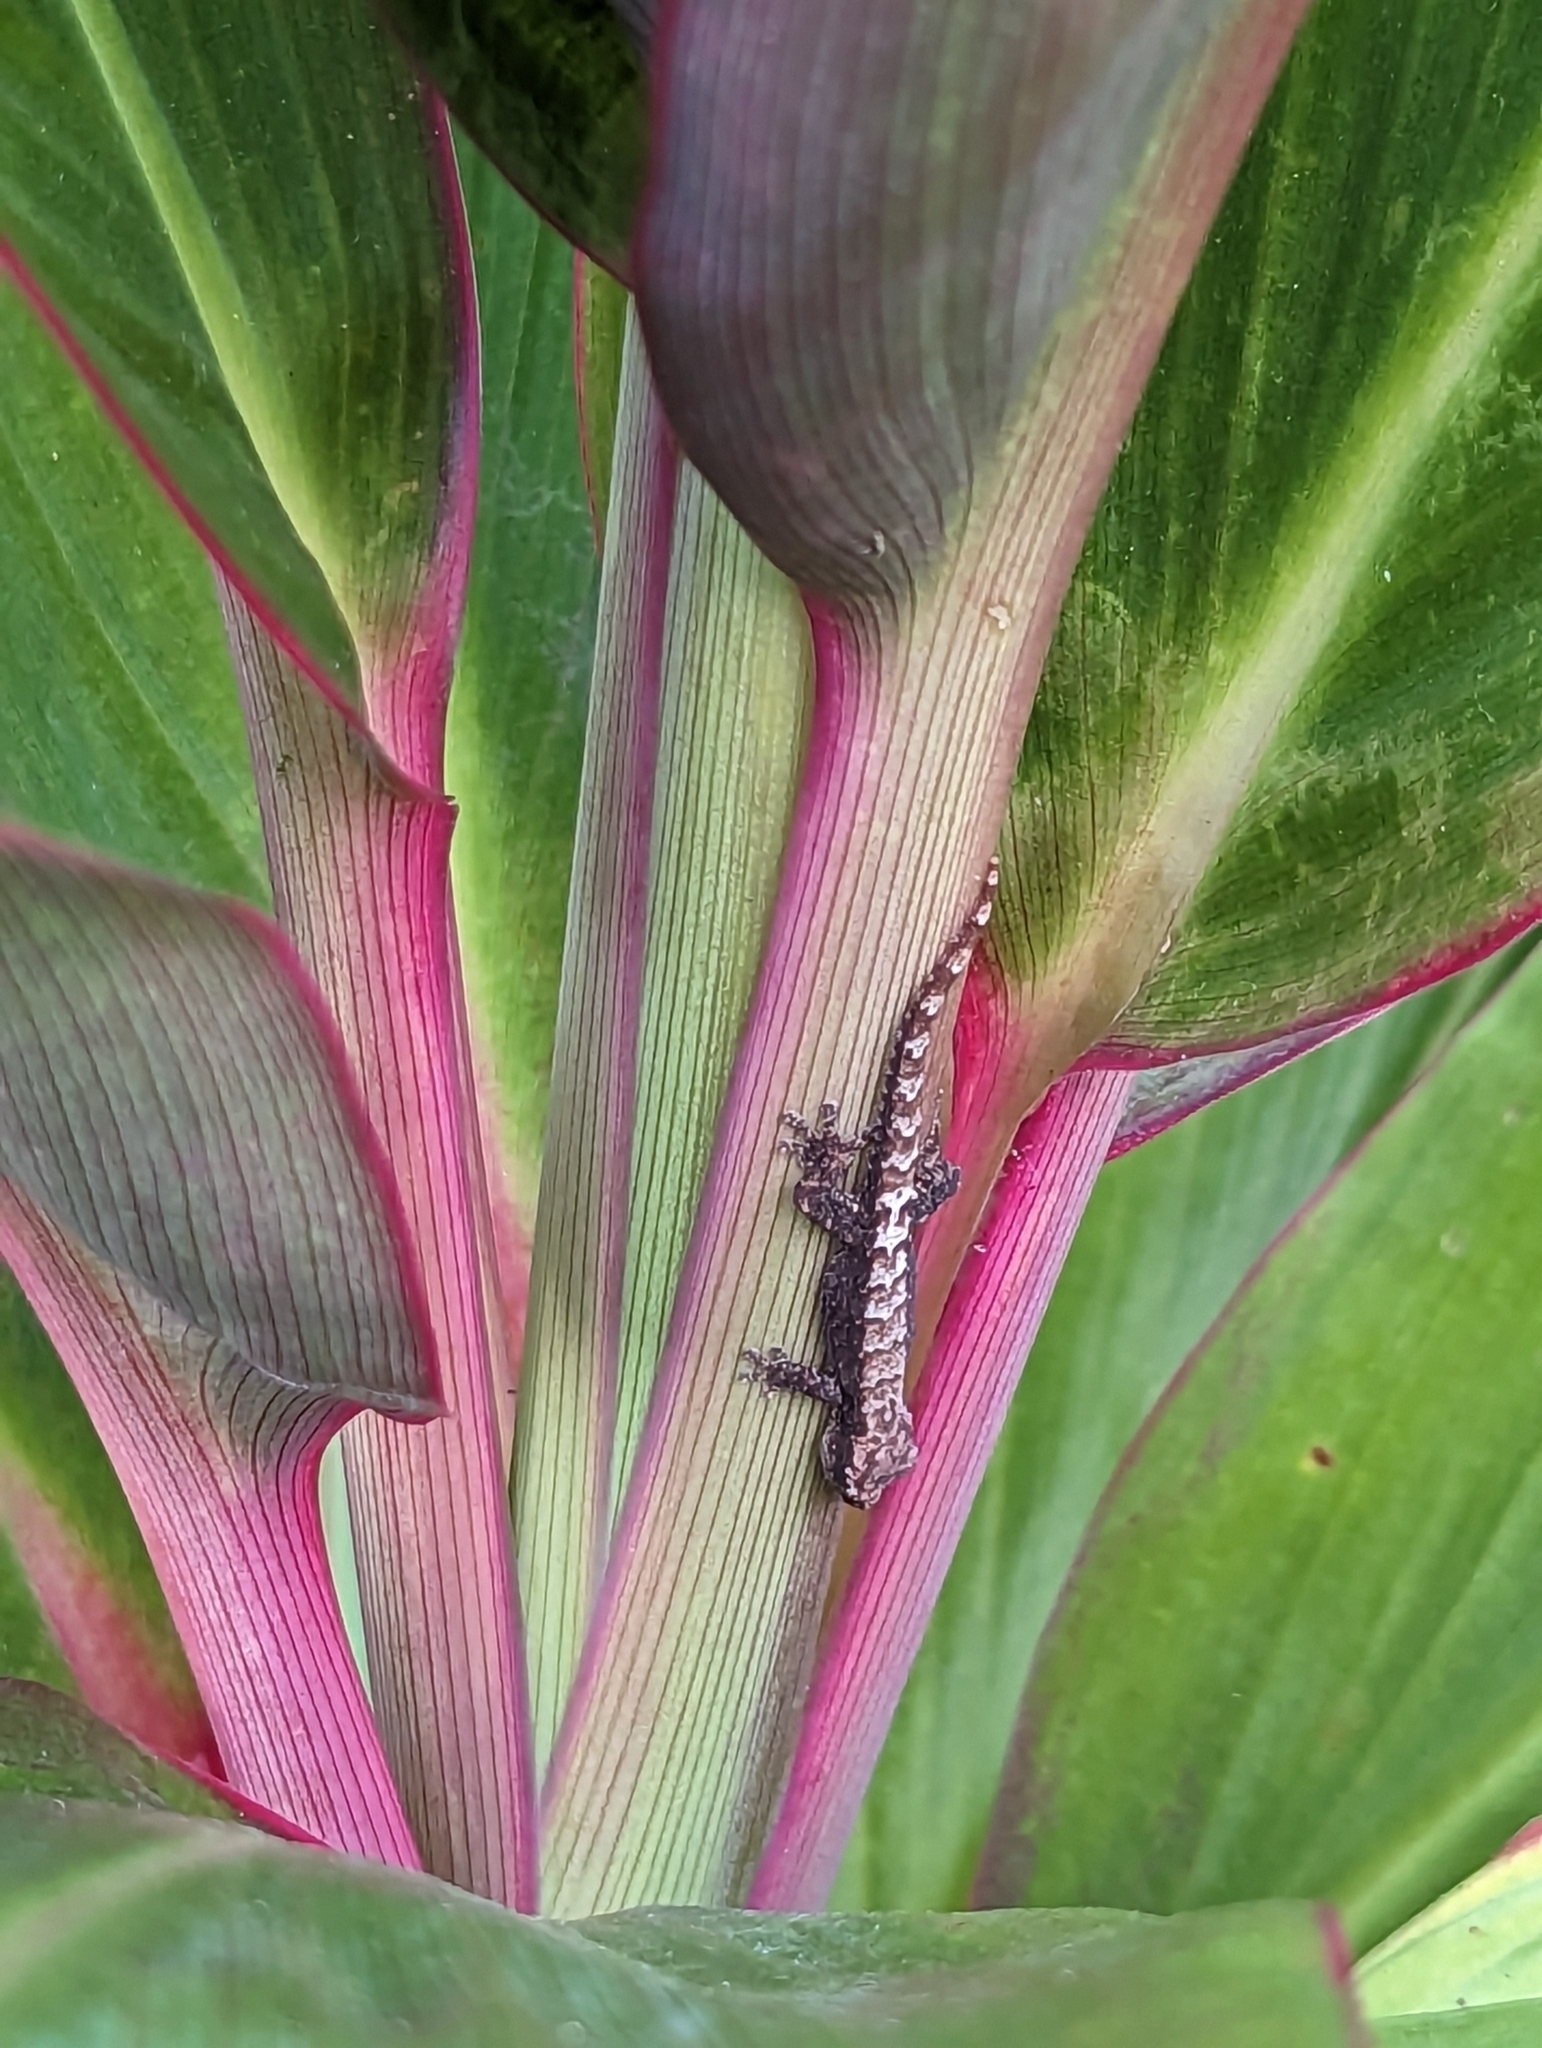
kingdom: Animalia
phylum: Chordata
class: Squamata
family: Gekkonidae
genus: Lepidodactylus
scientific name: Lepidodactylus lugubris
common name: Mourning gecko
